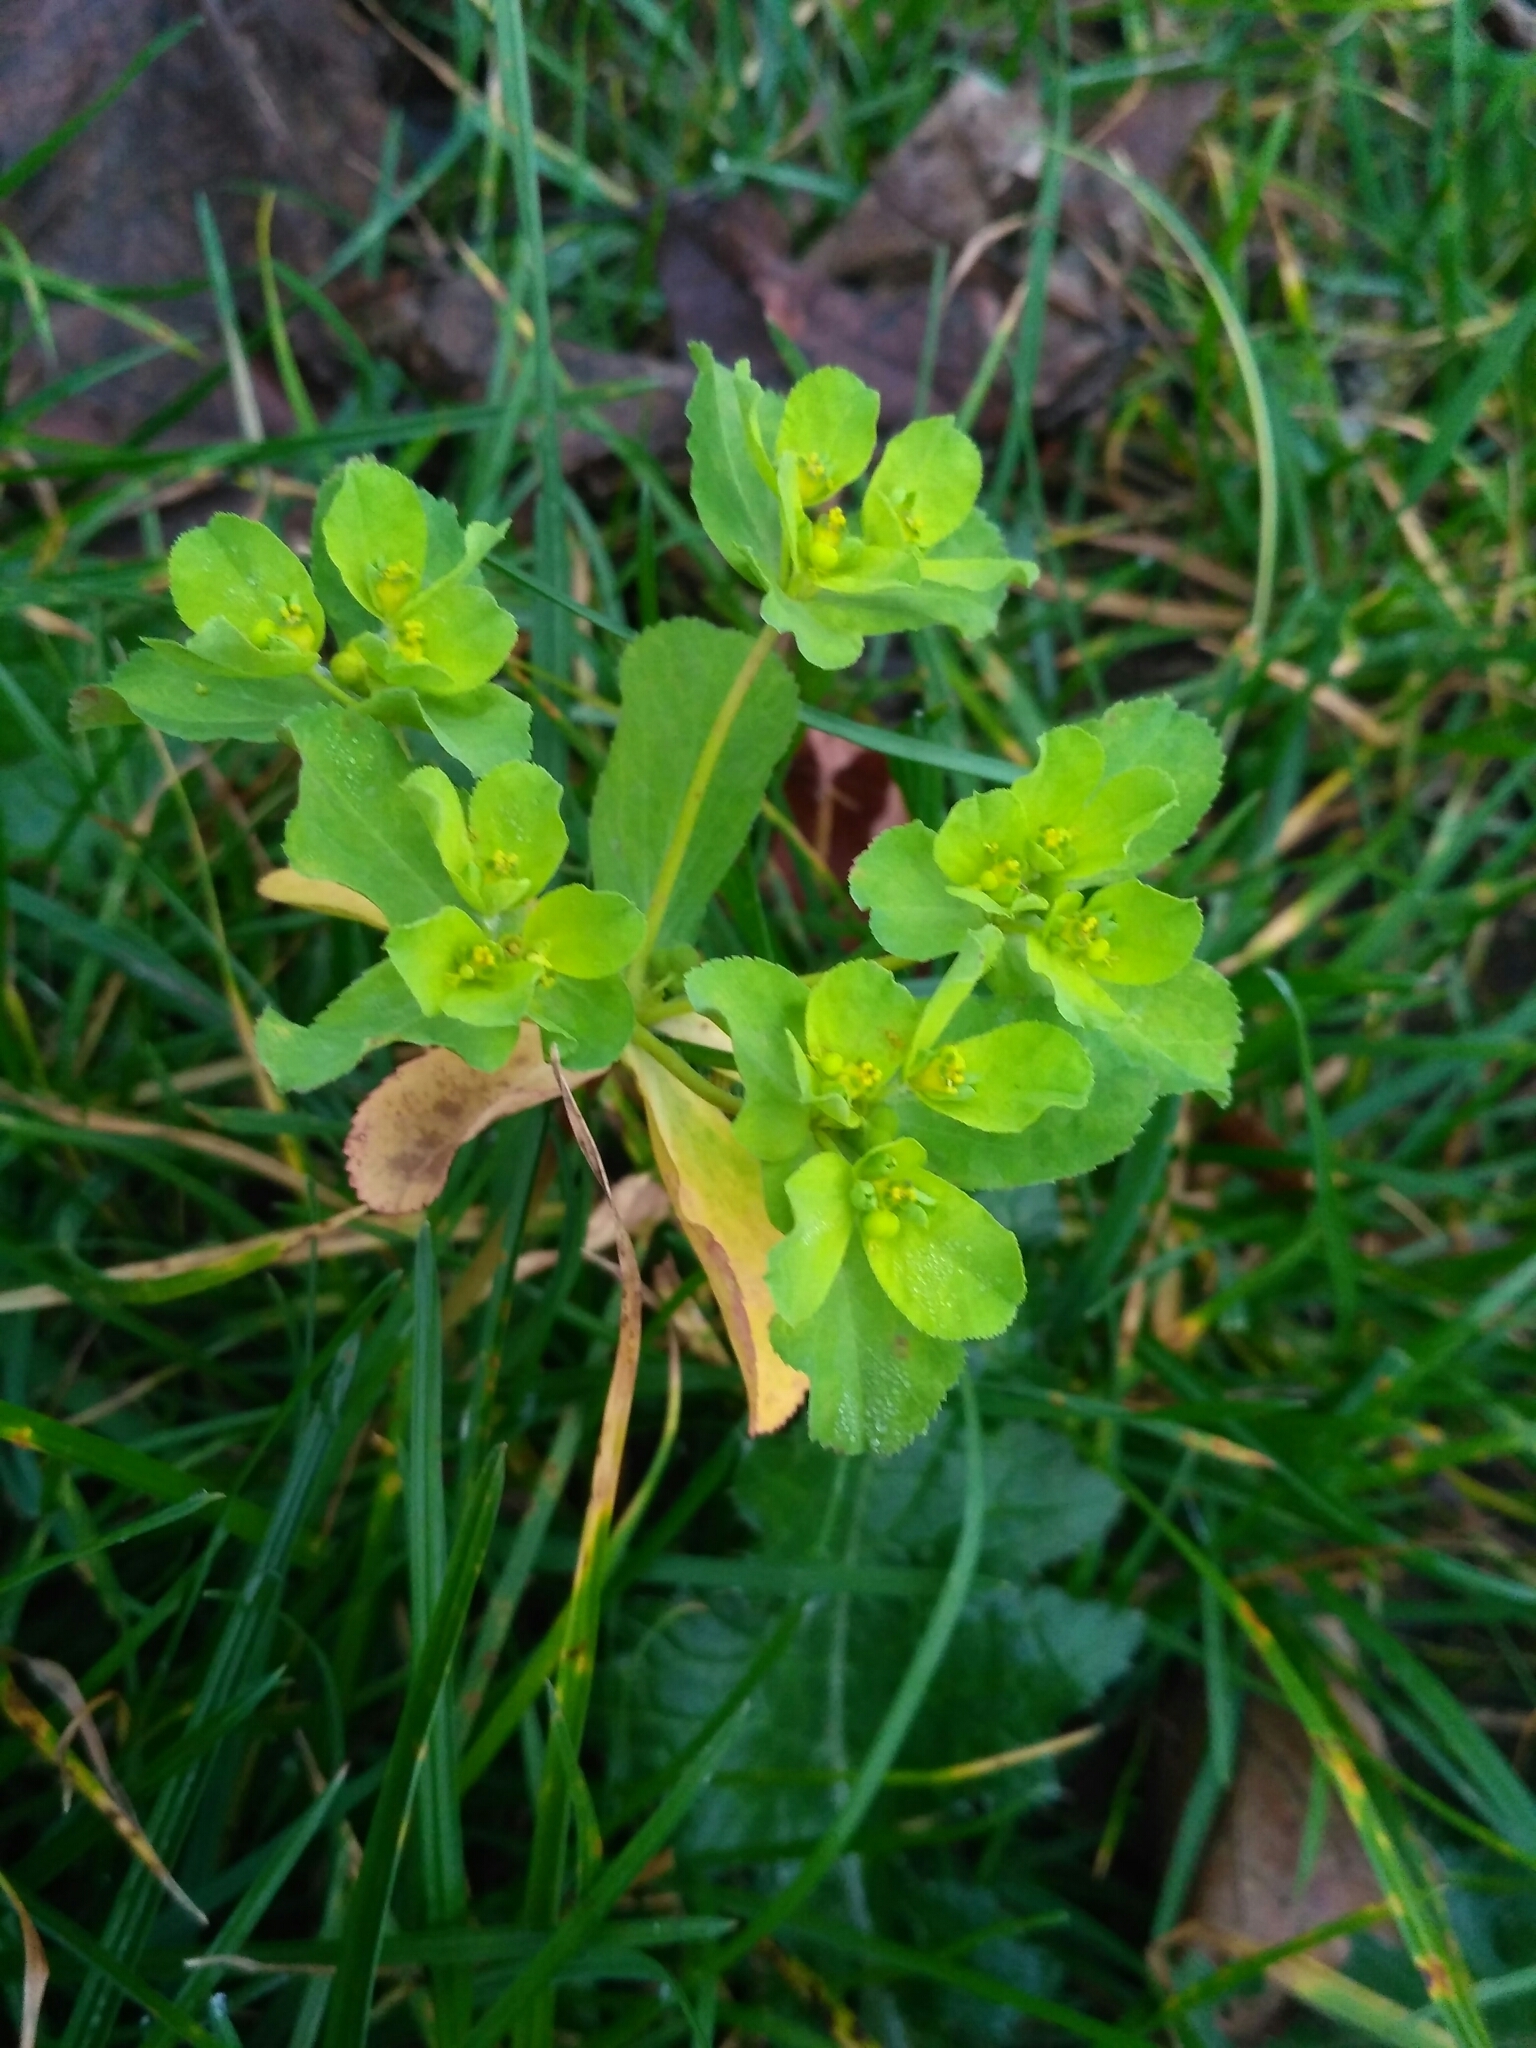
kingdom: Plantae
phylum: Tracheophyta
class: Magnoliopsida
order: Malpighiales
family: Euphorbiaceae
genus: Euphorbia
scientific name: Euphorbia helioscopia
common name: Sun spurge
